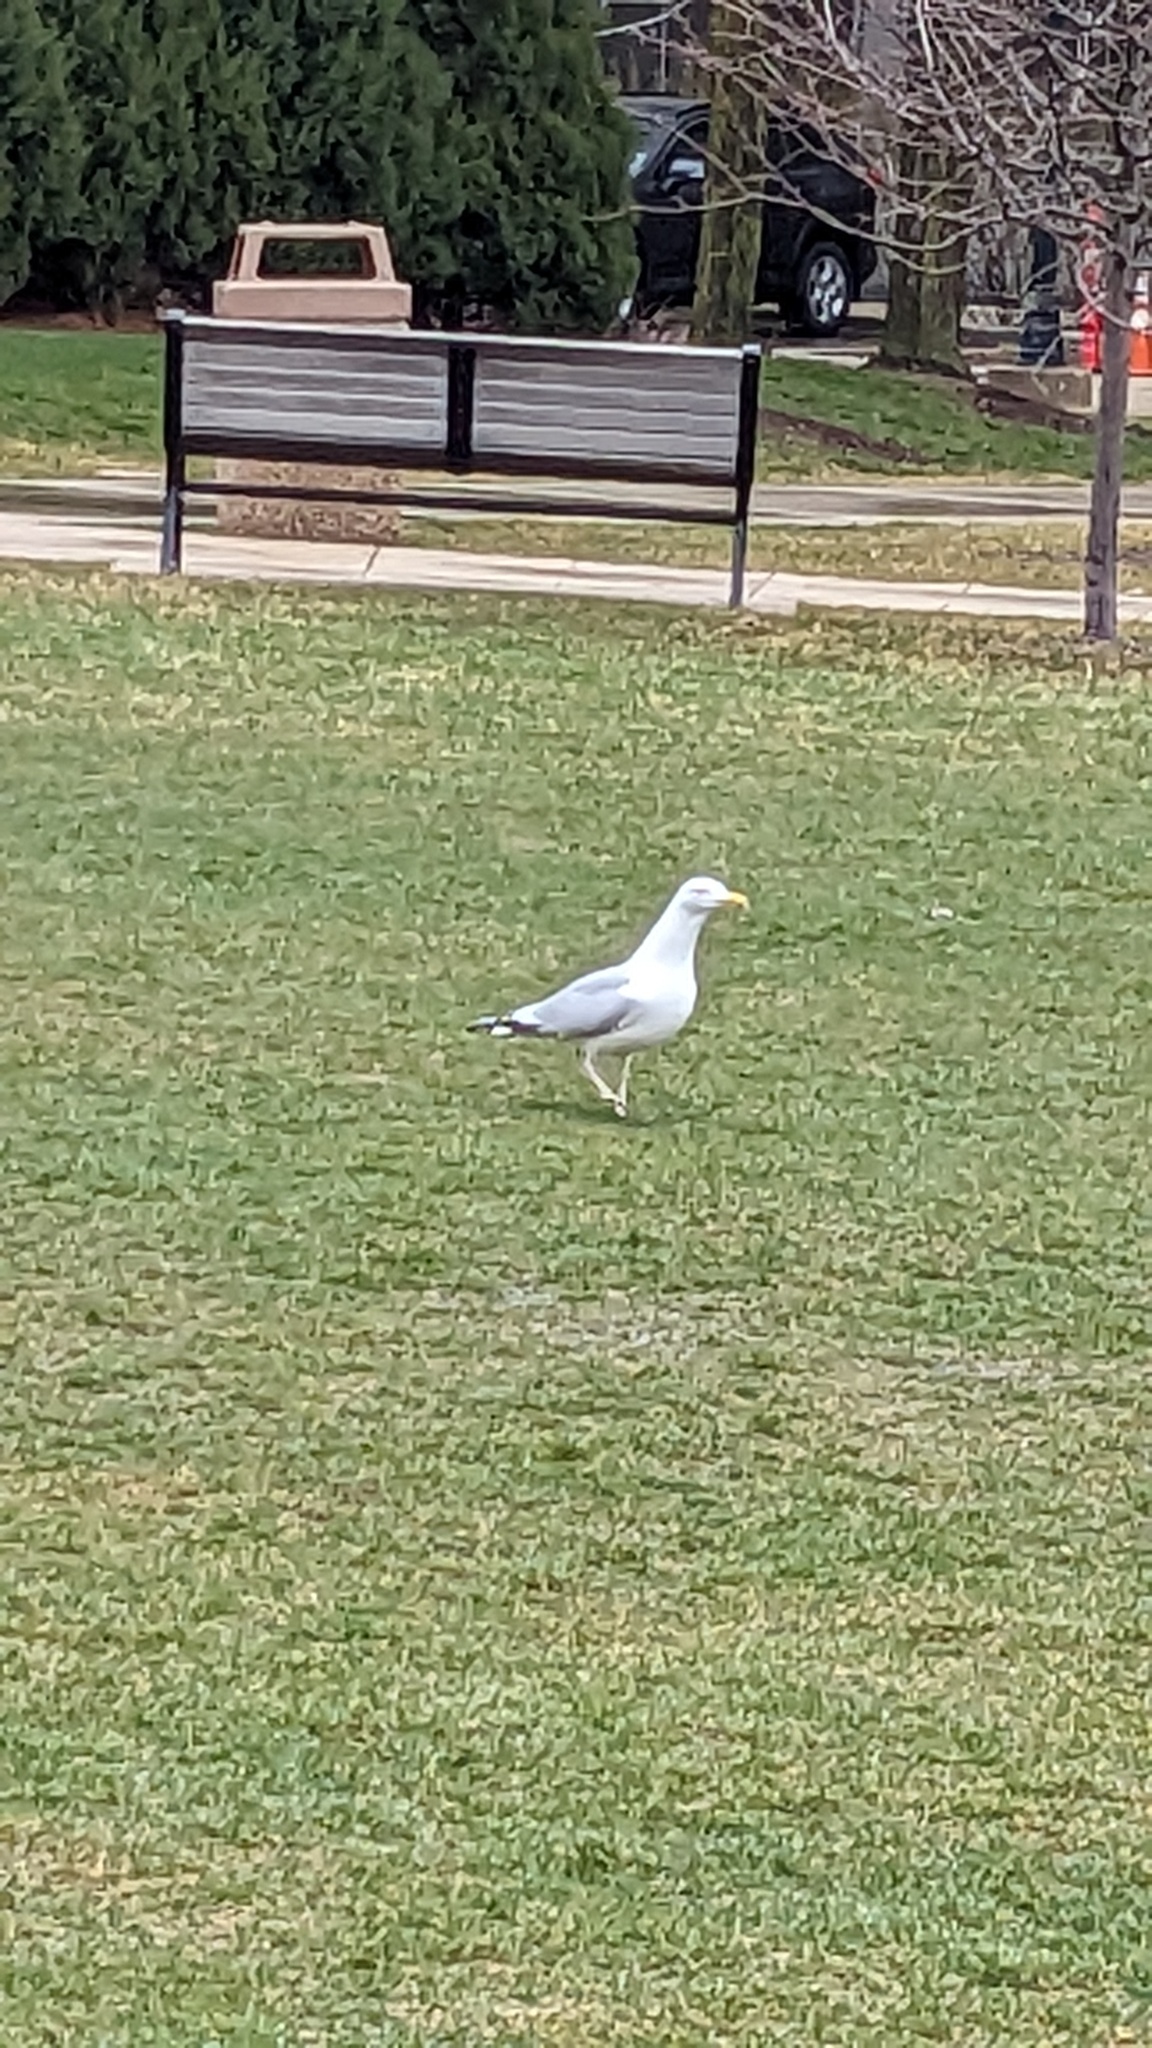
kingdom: Animalia
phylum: Chordata
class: Aves
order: Charadriiformes
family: Laridae
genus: Larus
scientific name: Larus smithsonianus
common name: American herring gull
